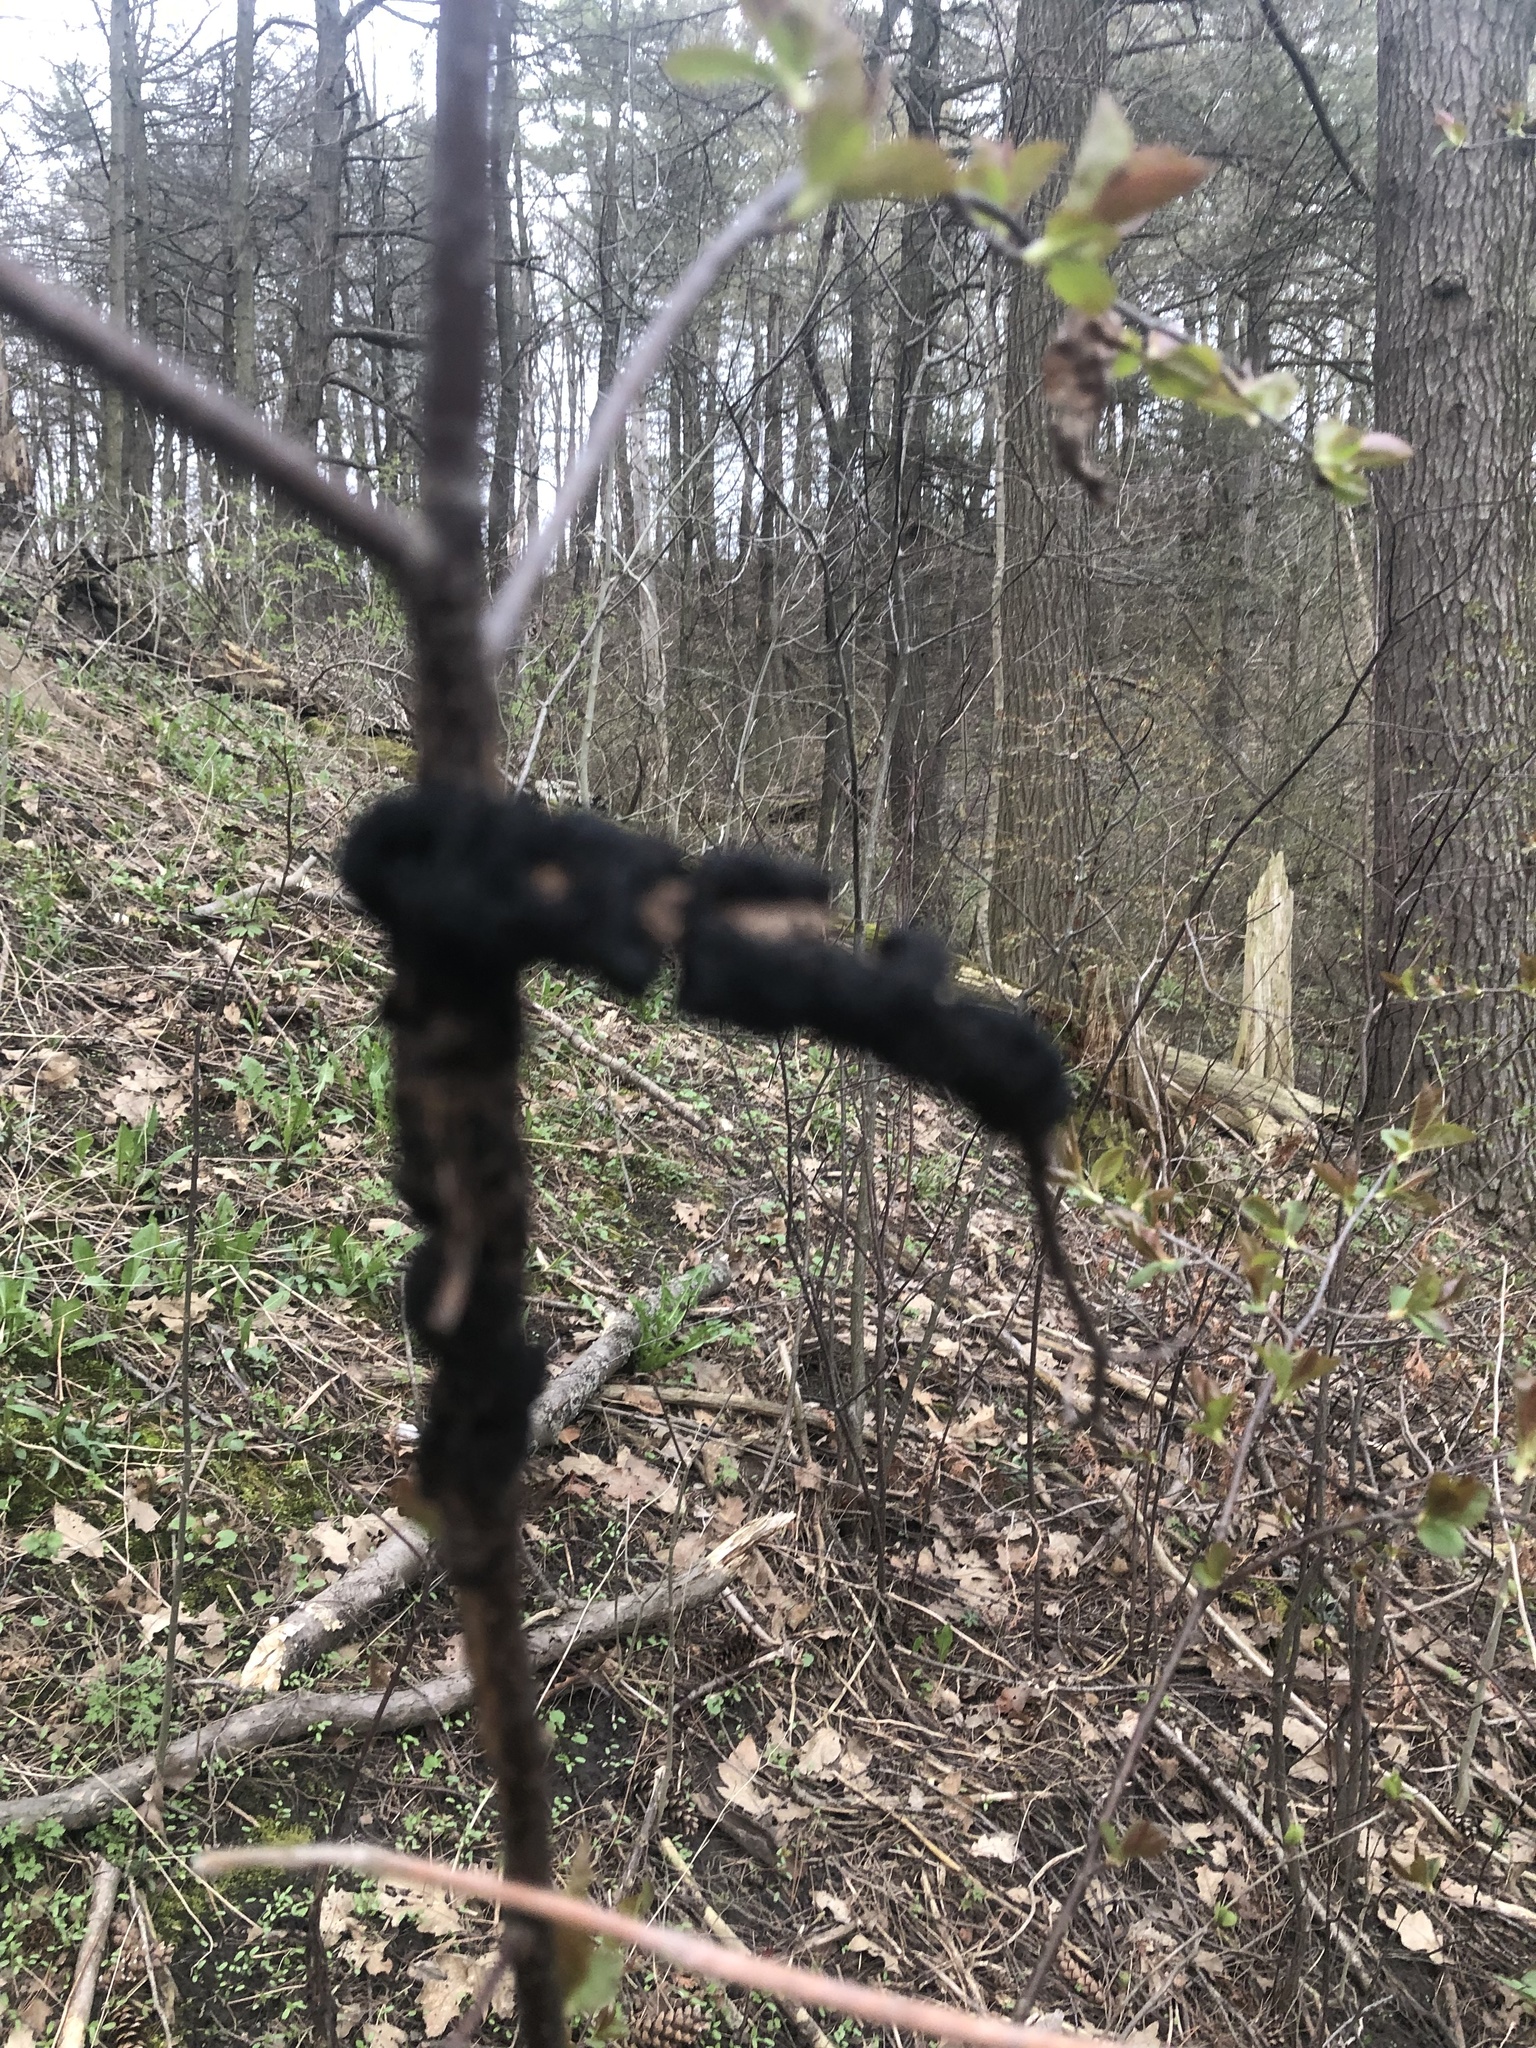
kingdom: Fungi
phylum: Ascomycota
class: Dothideomycetes
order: Venturiales
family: Venturiaceae
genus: Apiosporina
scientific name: Apiosporina morbosa
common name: Black knot
